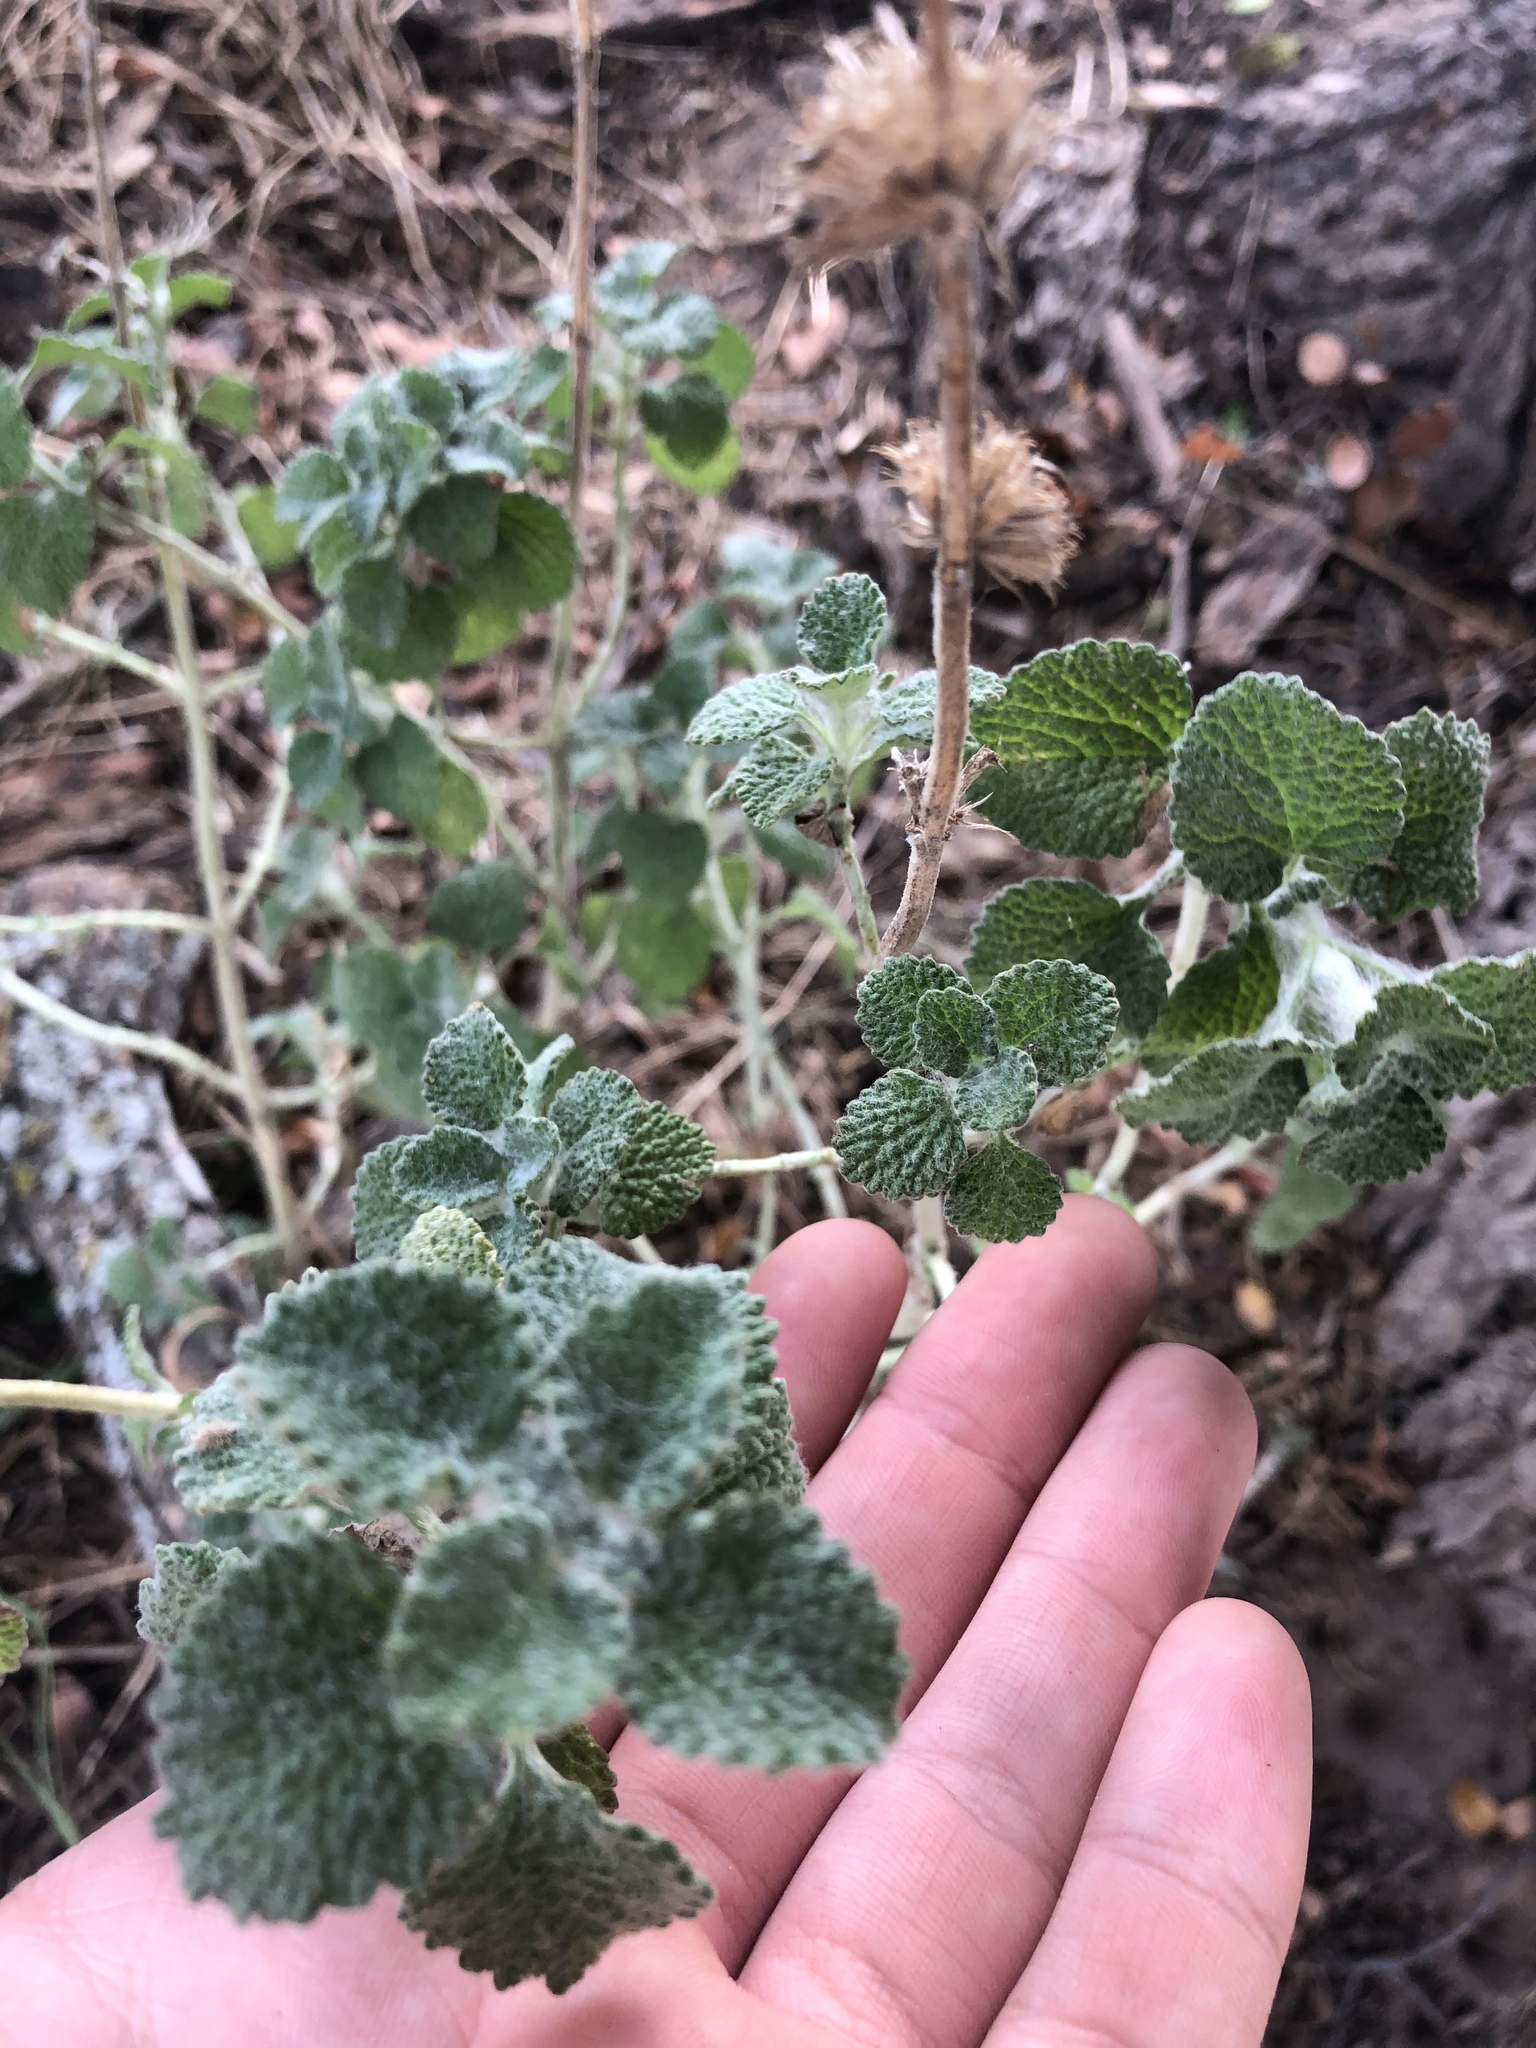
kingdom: Plantae
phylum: Tracheophyta
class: Magnoliopsida
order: Lamiales
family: Lamiaceae
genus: Marrubium
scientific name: Marrubium vulgare
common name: Horehound
